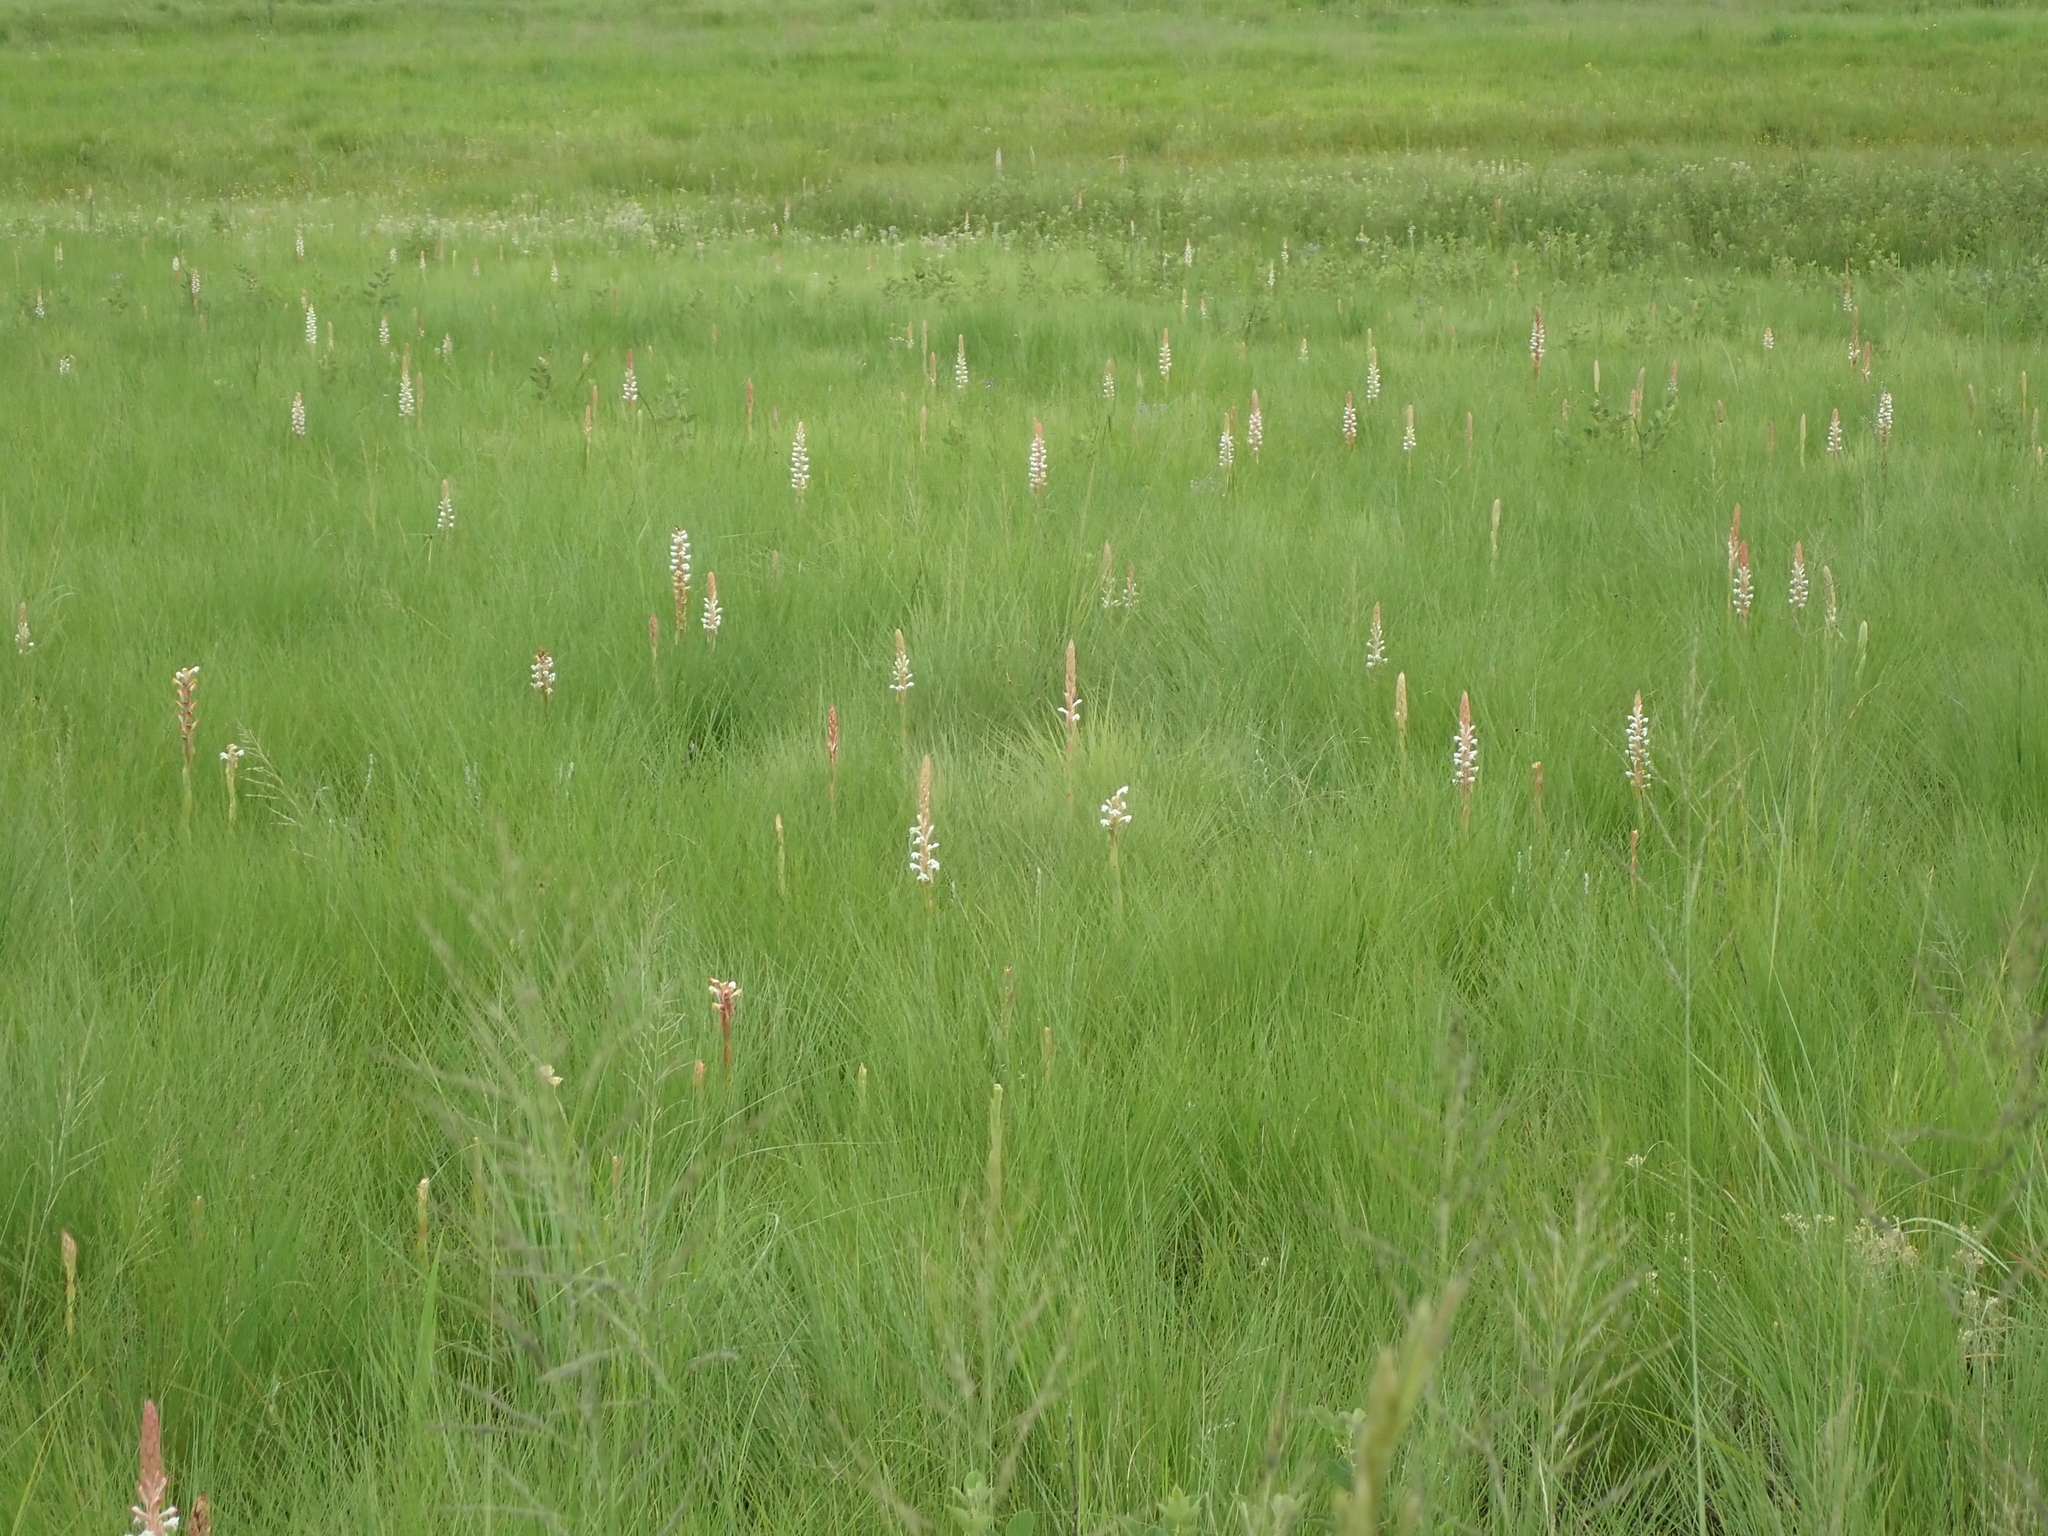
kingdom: Plantae
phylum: Tracheophyta
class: Liliopsida
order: Asparagales
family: Orchidaceae
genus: Satyrium
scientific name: Satyrium longicauda
